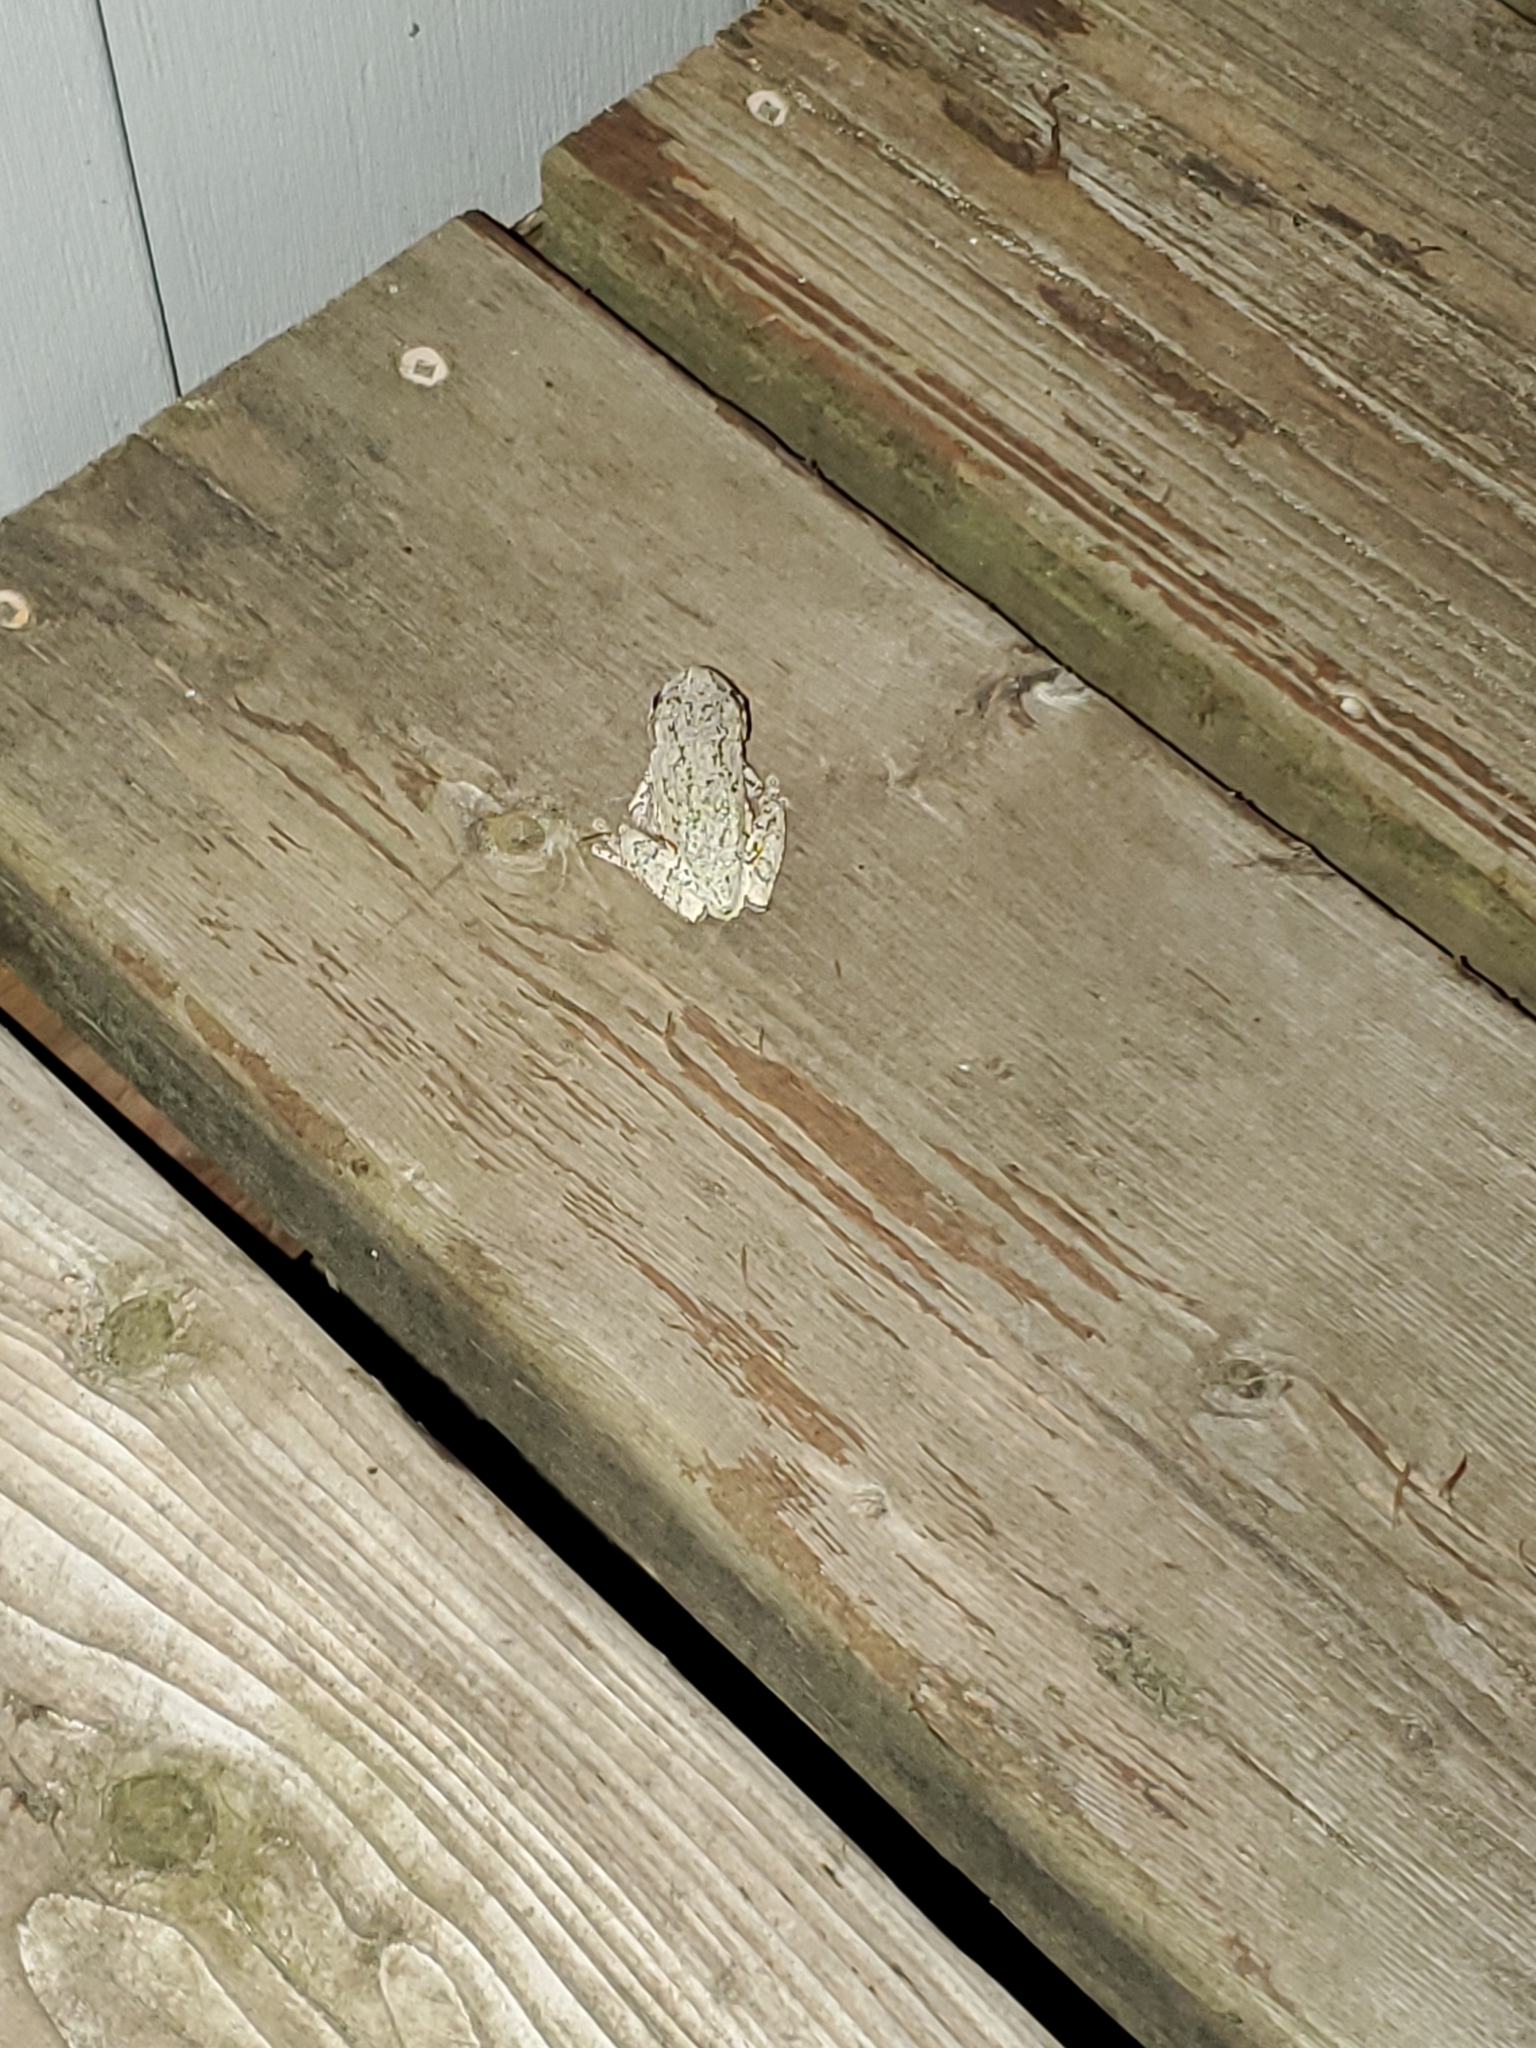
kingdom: Animalia
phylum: Chordata
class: Amphibia
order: Anura
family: Hylidae
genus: Dryophytes
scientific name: Dryophytes versicolor
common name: Gray treefrog
